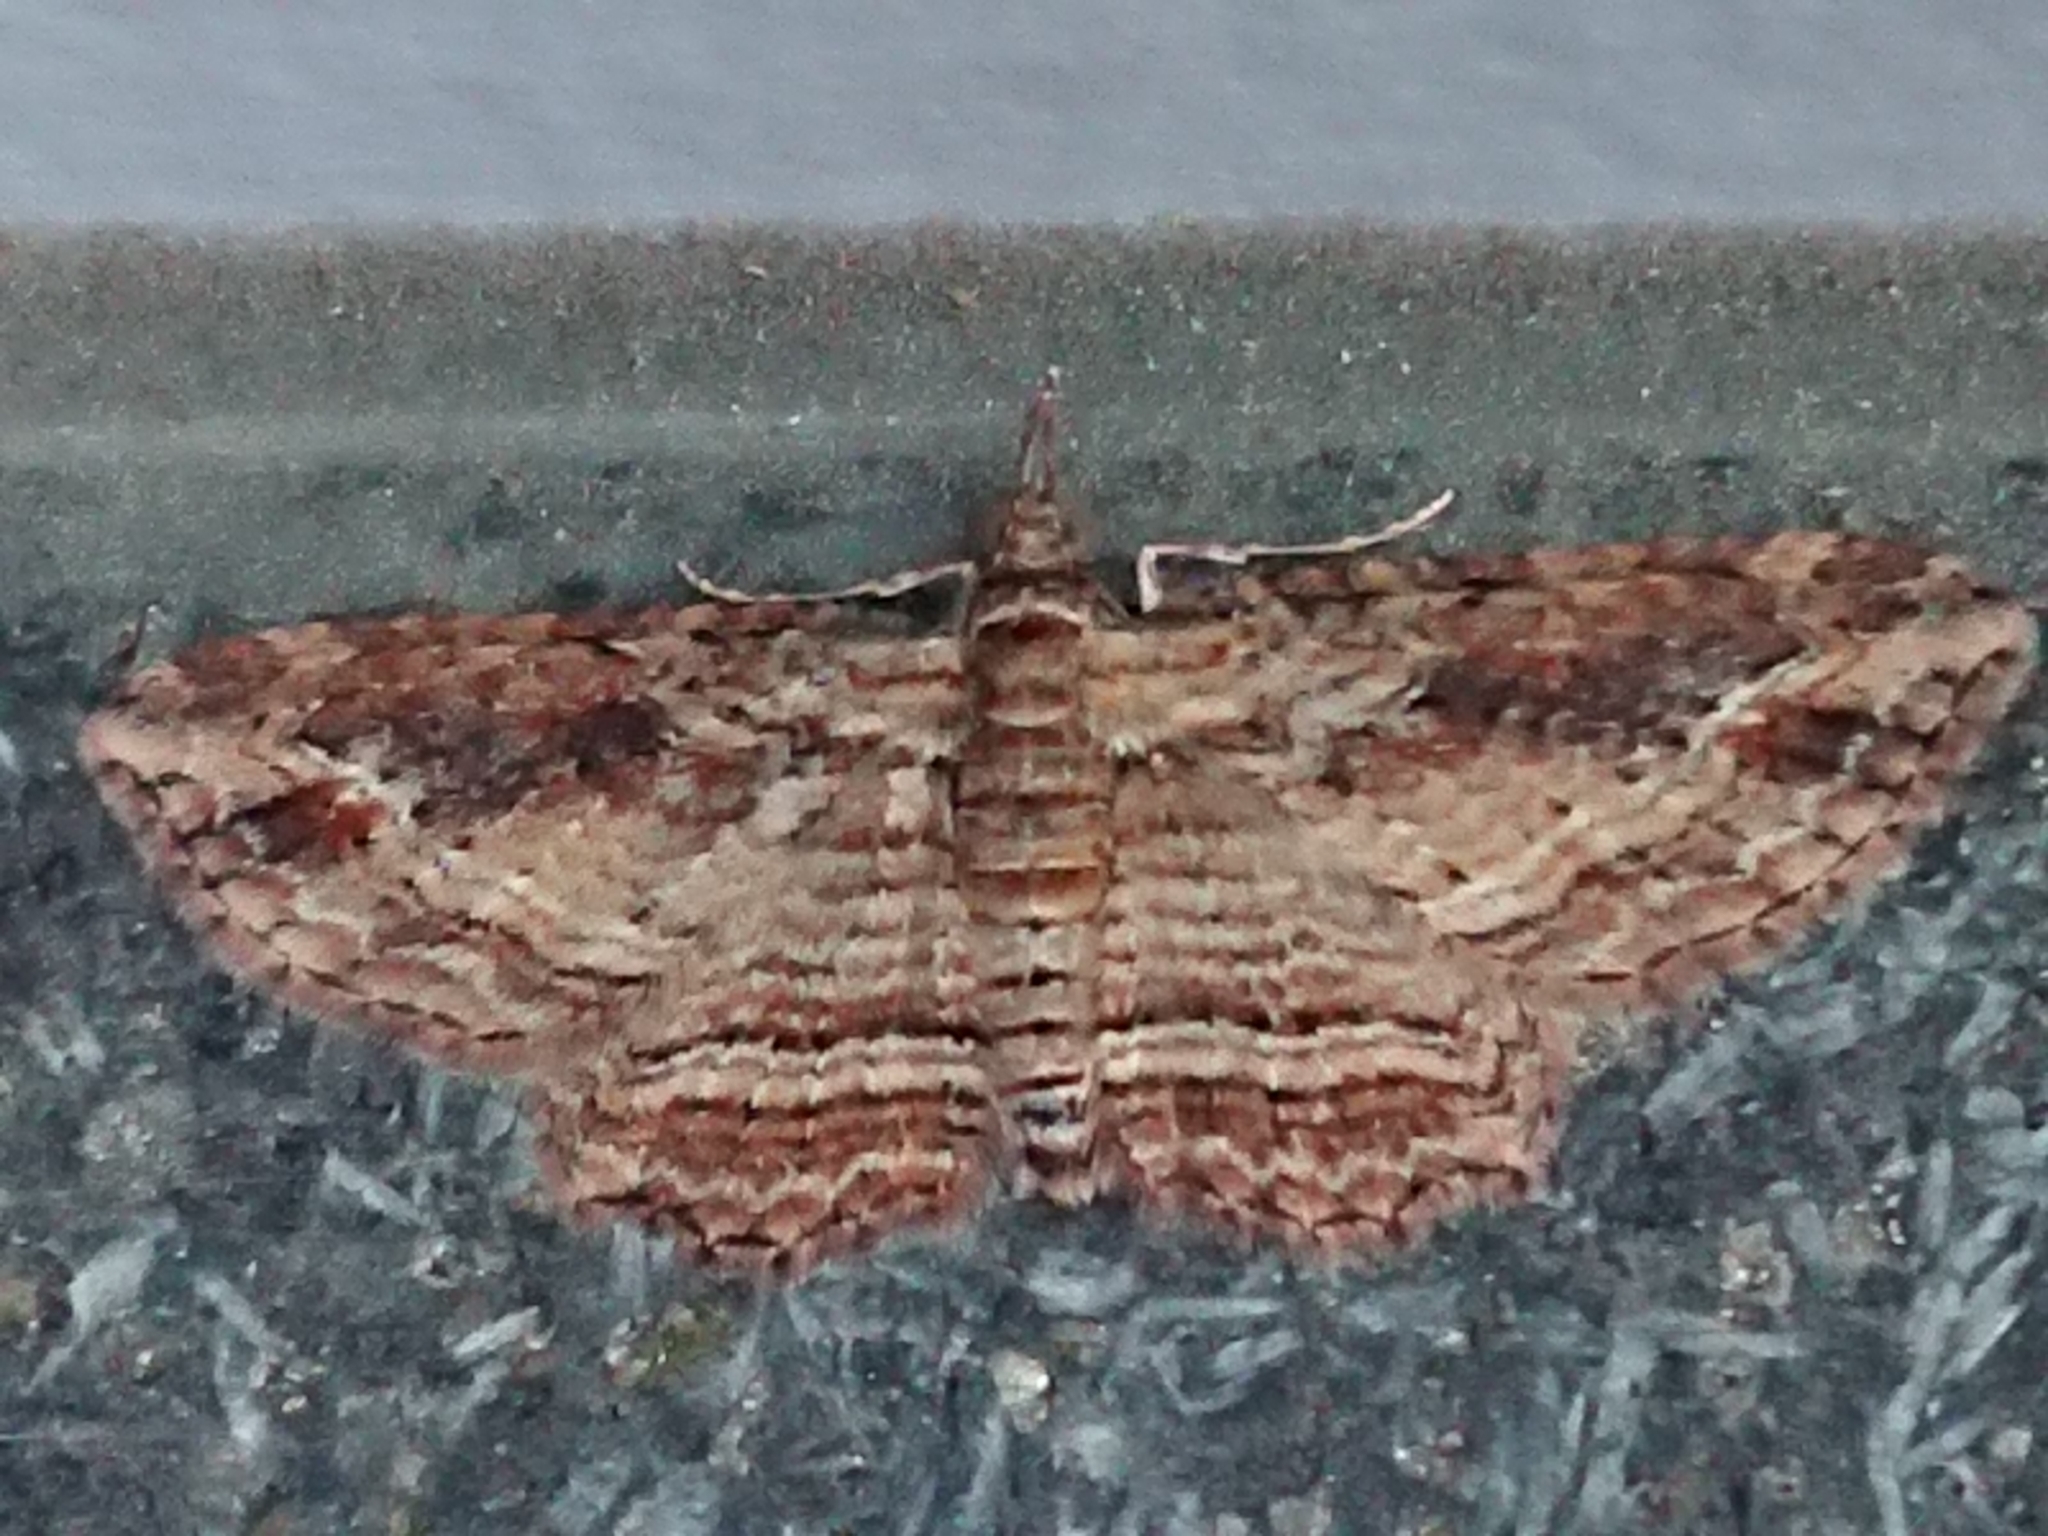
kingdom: Animalia
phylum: Arthropoda
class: Insecta
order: Lepidoptera
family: Geometridae
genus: Chloroclystis
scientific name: Chloroclystis filata
